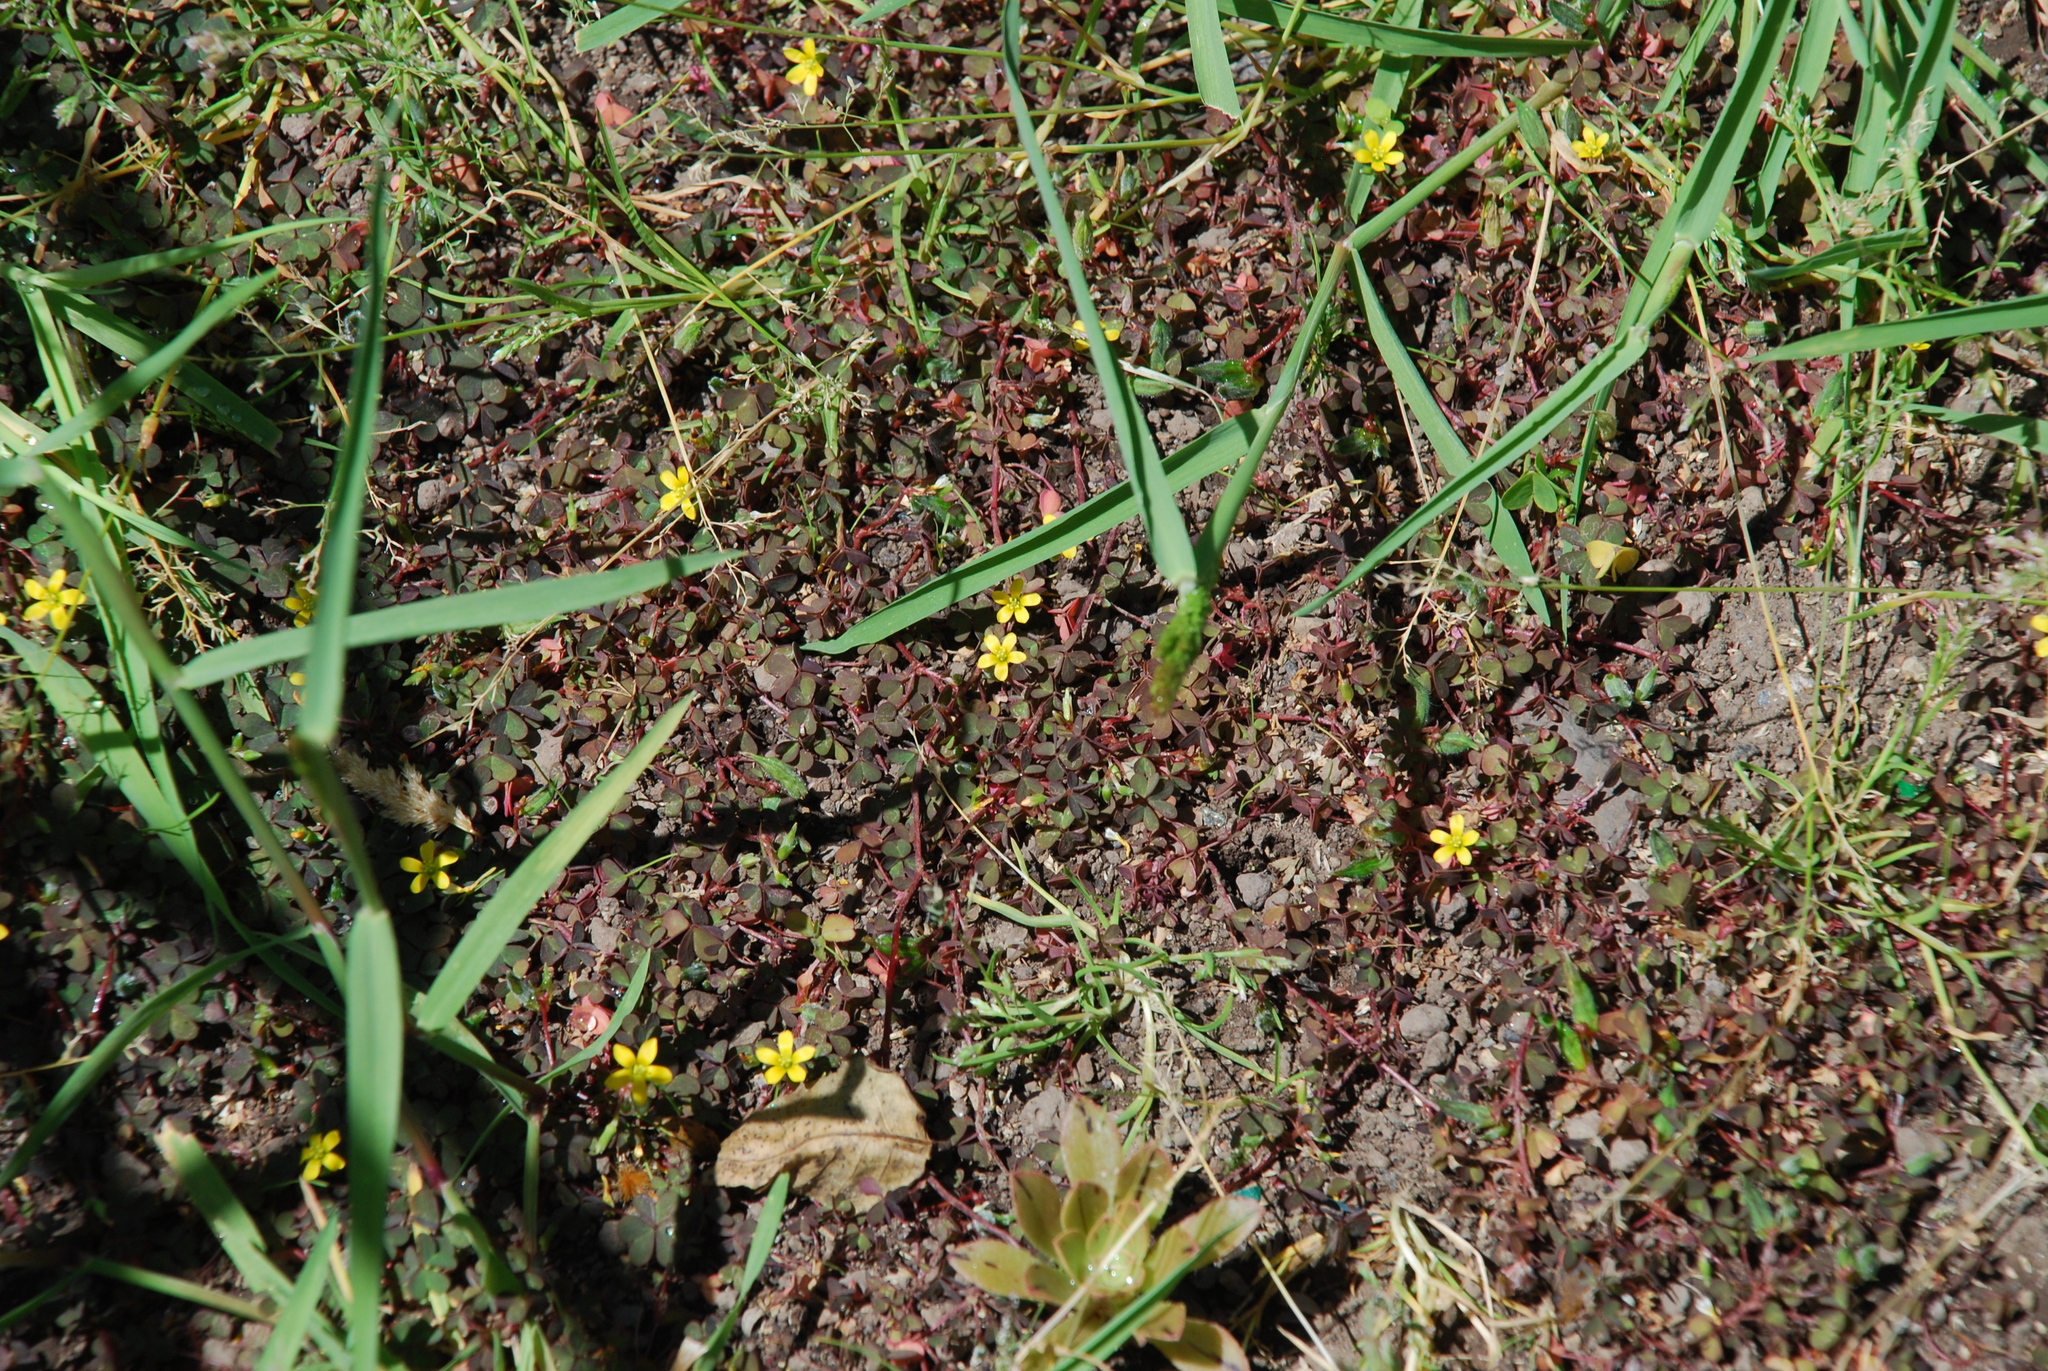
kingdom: Plantae
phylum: Tracheophyta
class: Magnoliopsida
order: Oxalidales
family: Oxalidaceae
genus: Oxalis
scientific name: Oxalis corniculata
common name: Procumbent yellow-sorrel
